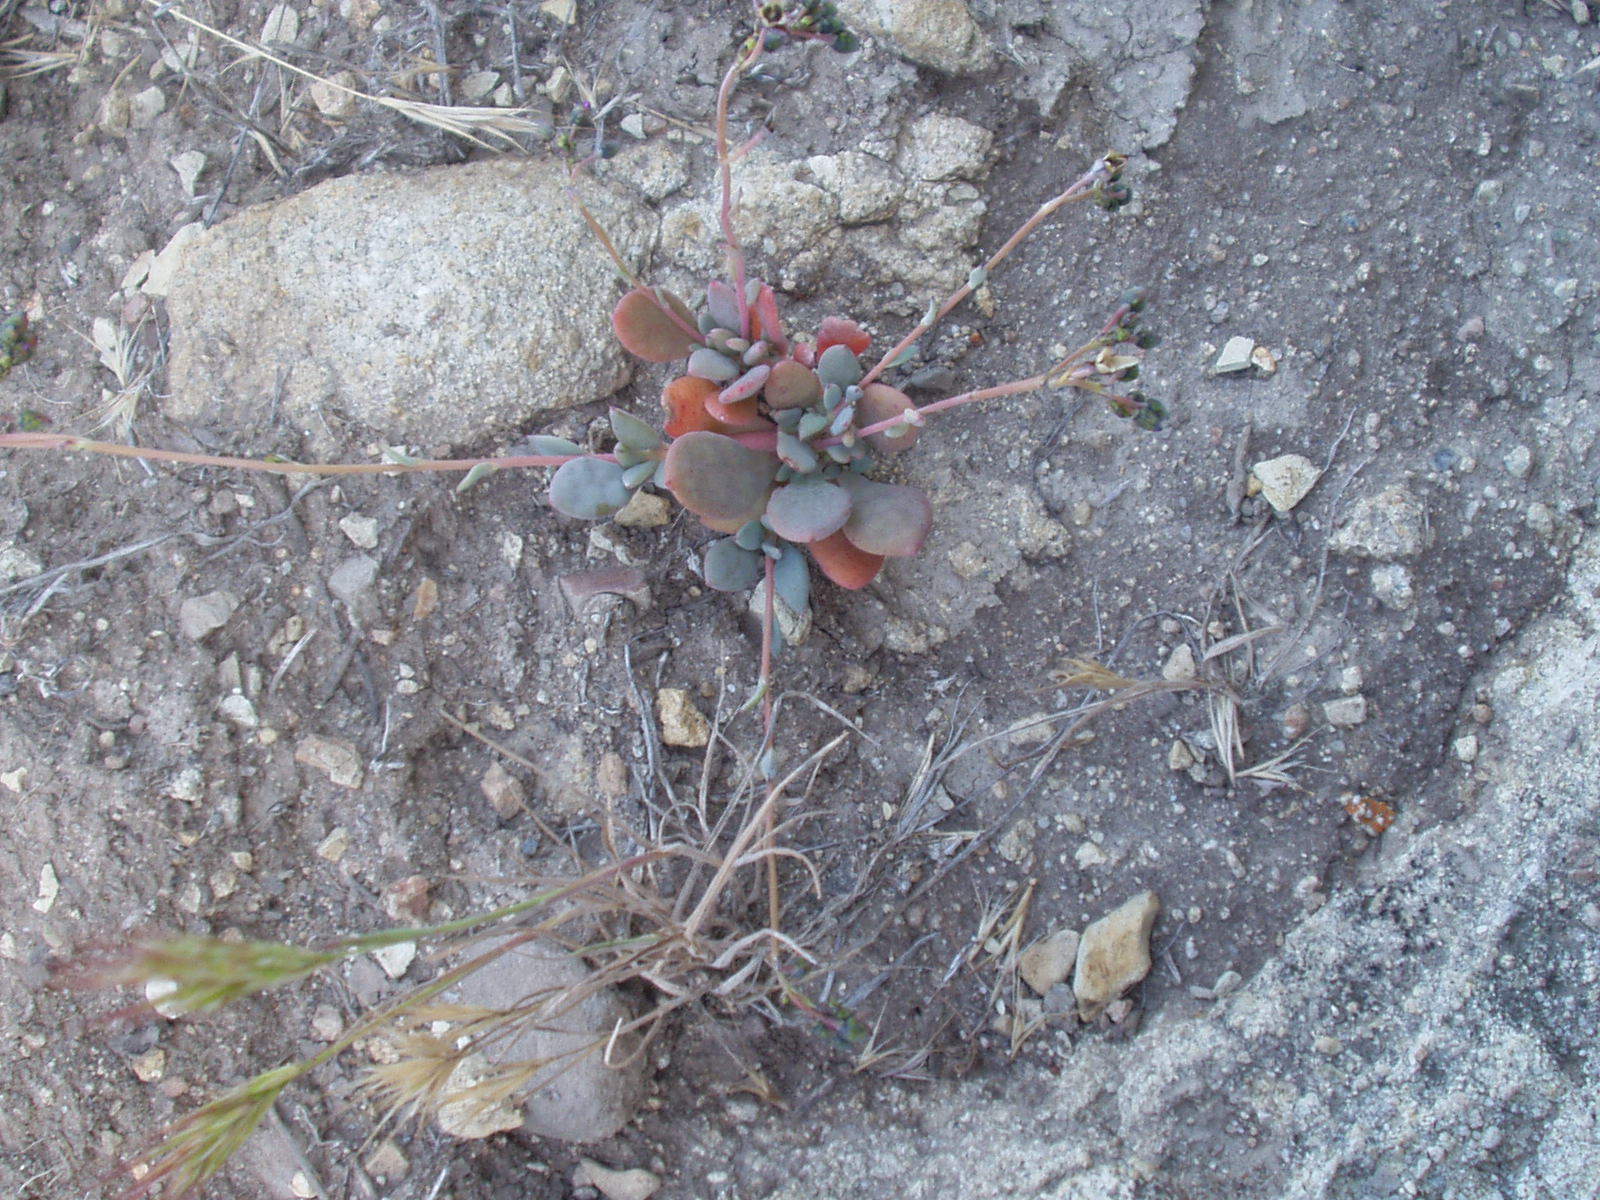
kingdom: Plantae
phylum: Tracheophyta
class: Magnoliopsida
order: Caryophyllales
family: Montiaceae
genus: Cistanthe
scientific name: Cistanthe maritima
